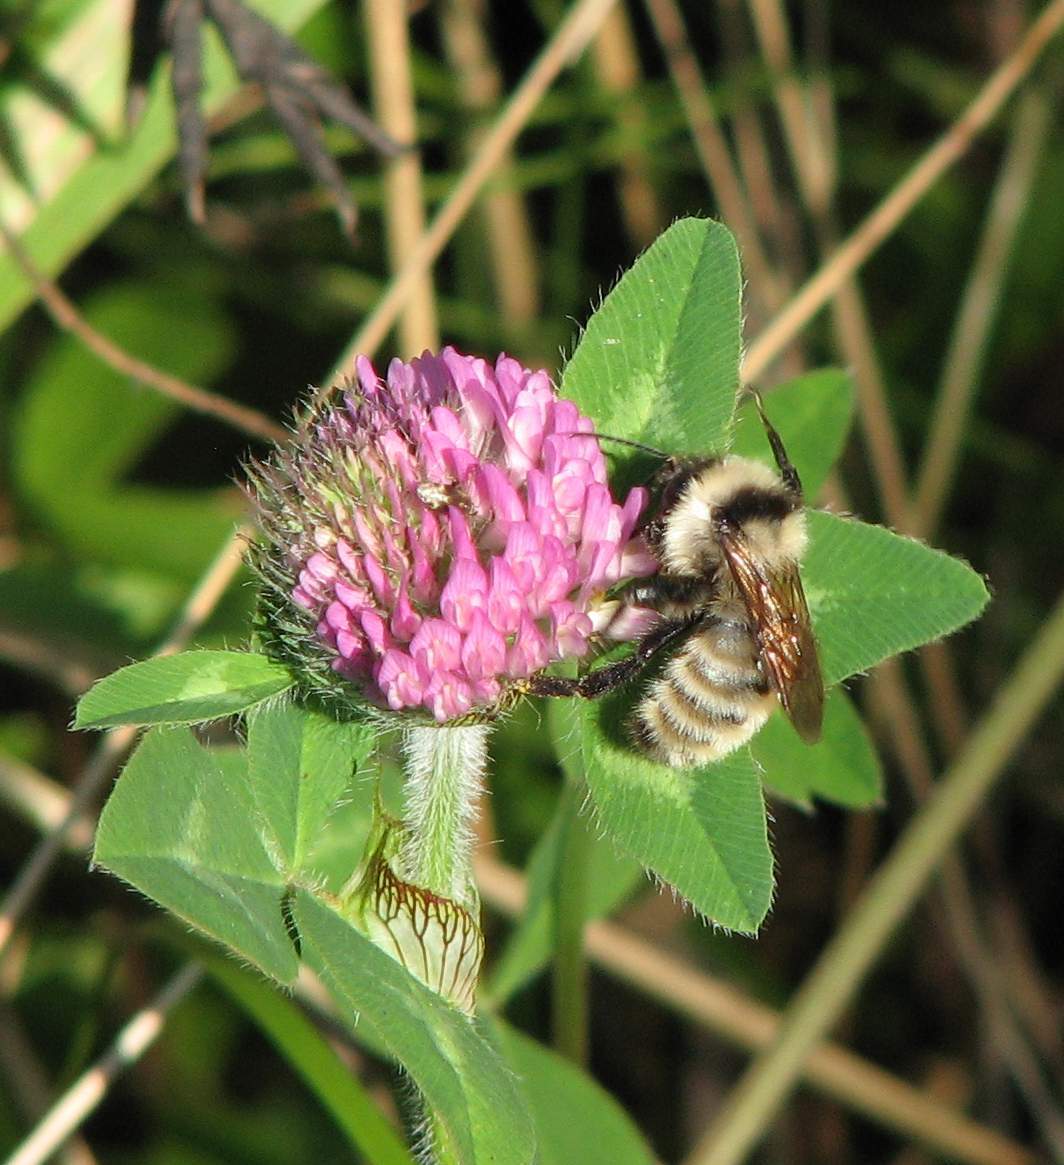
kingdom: Animalia
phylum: Arthropoda
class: Insecta
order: Hymenoptera
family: Apidae
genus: Bombus
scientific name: Bombus fervidus
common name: Yellow bumble bee
